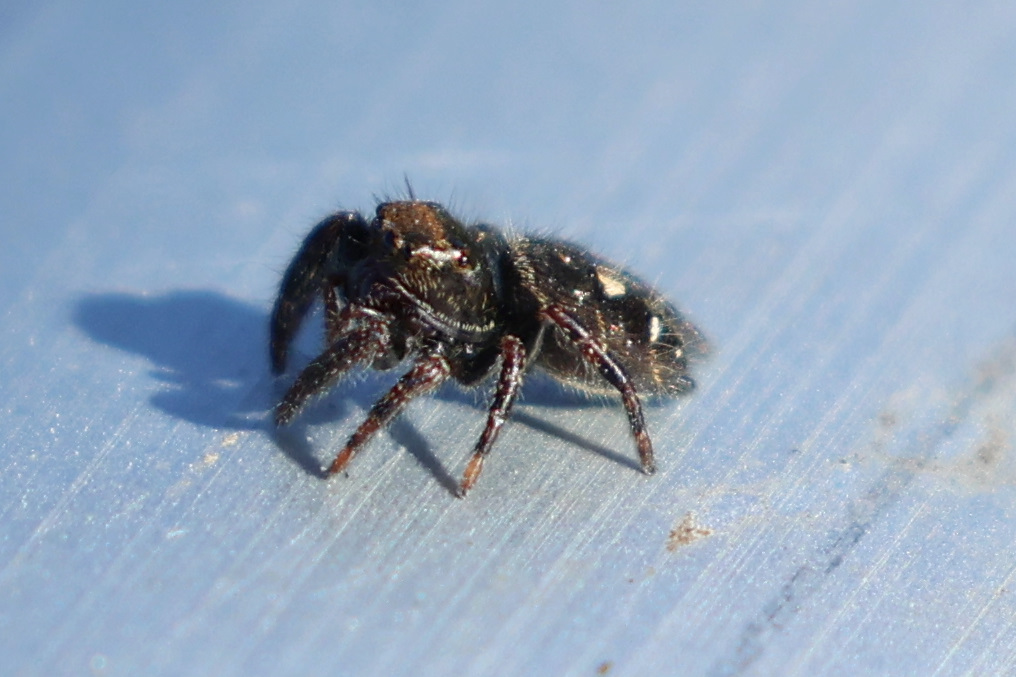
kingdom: Animalia
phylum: Arthropoda
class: Arachnida
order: Araneae
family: Salticidae
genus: Phidippus
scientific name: Phidippus audax
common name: Bold jumper
